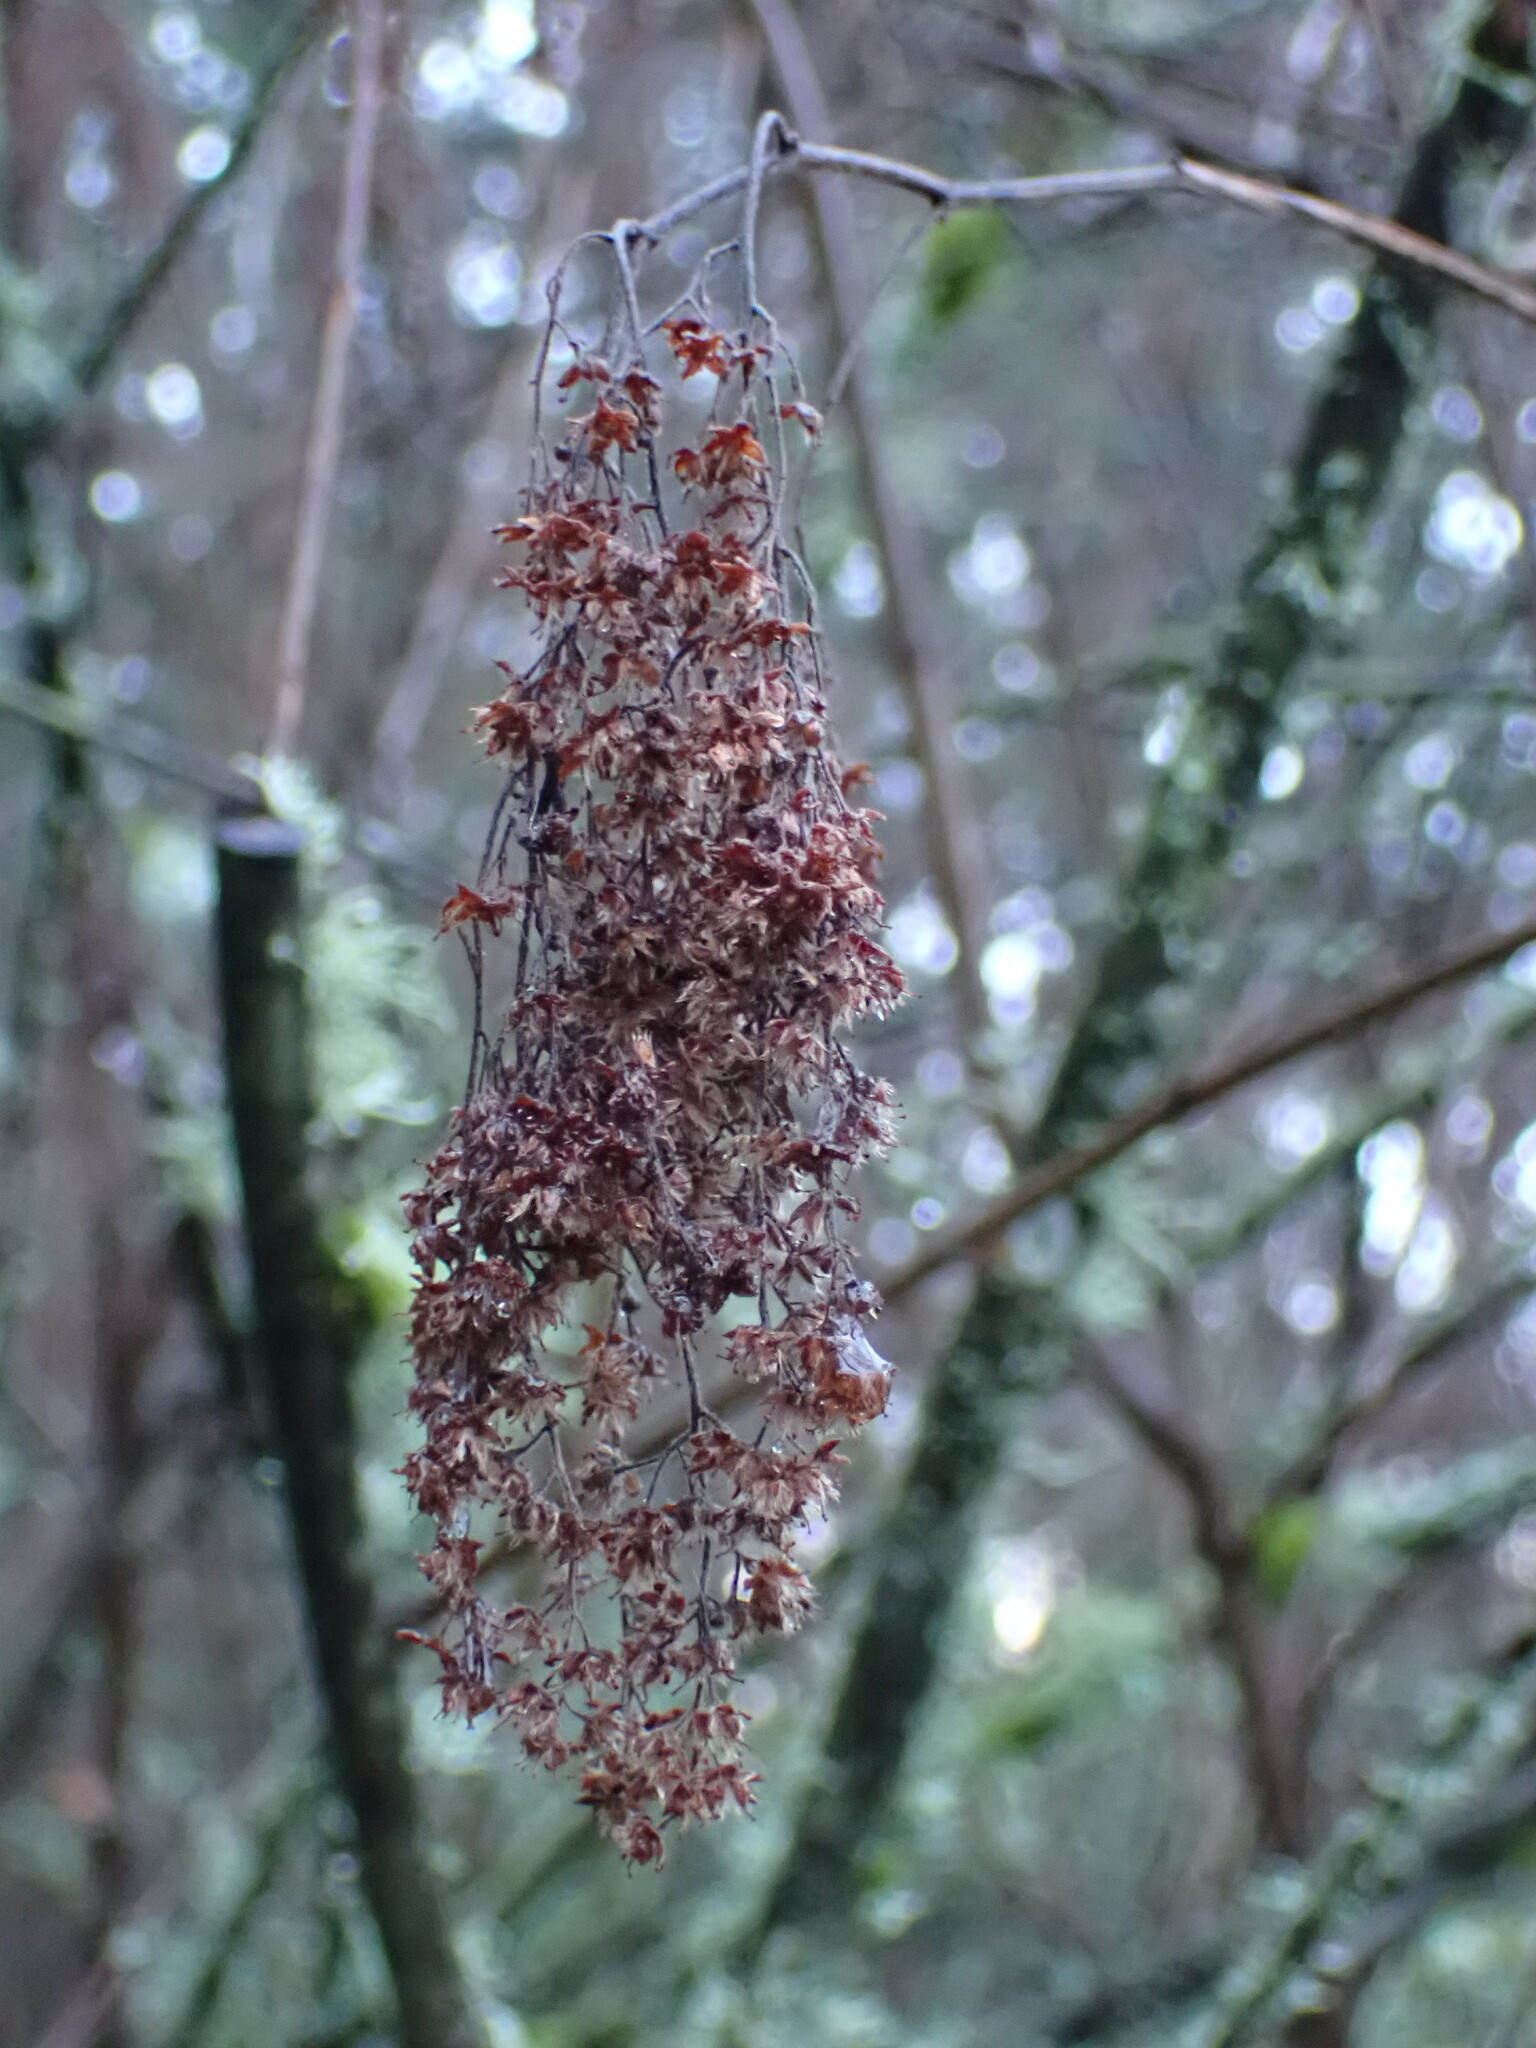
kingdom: Plantae
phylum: Tracheophyta
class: Magnoliopsida
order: Rosales
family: Rosaceae
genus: Holodiscus
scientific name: Holodiscus discolor
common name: Oceanspray
